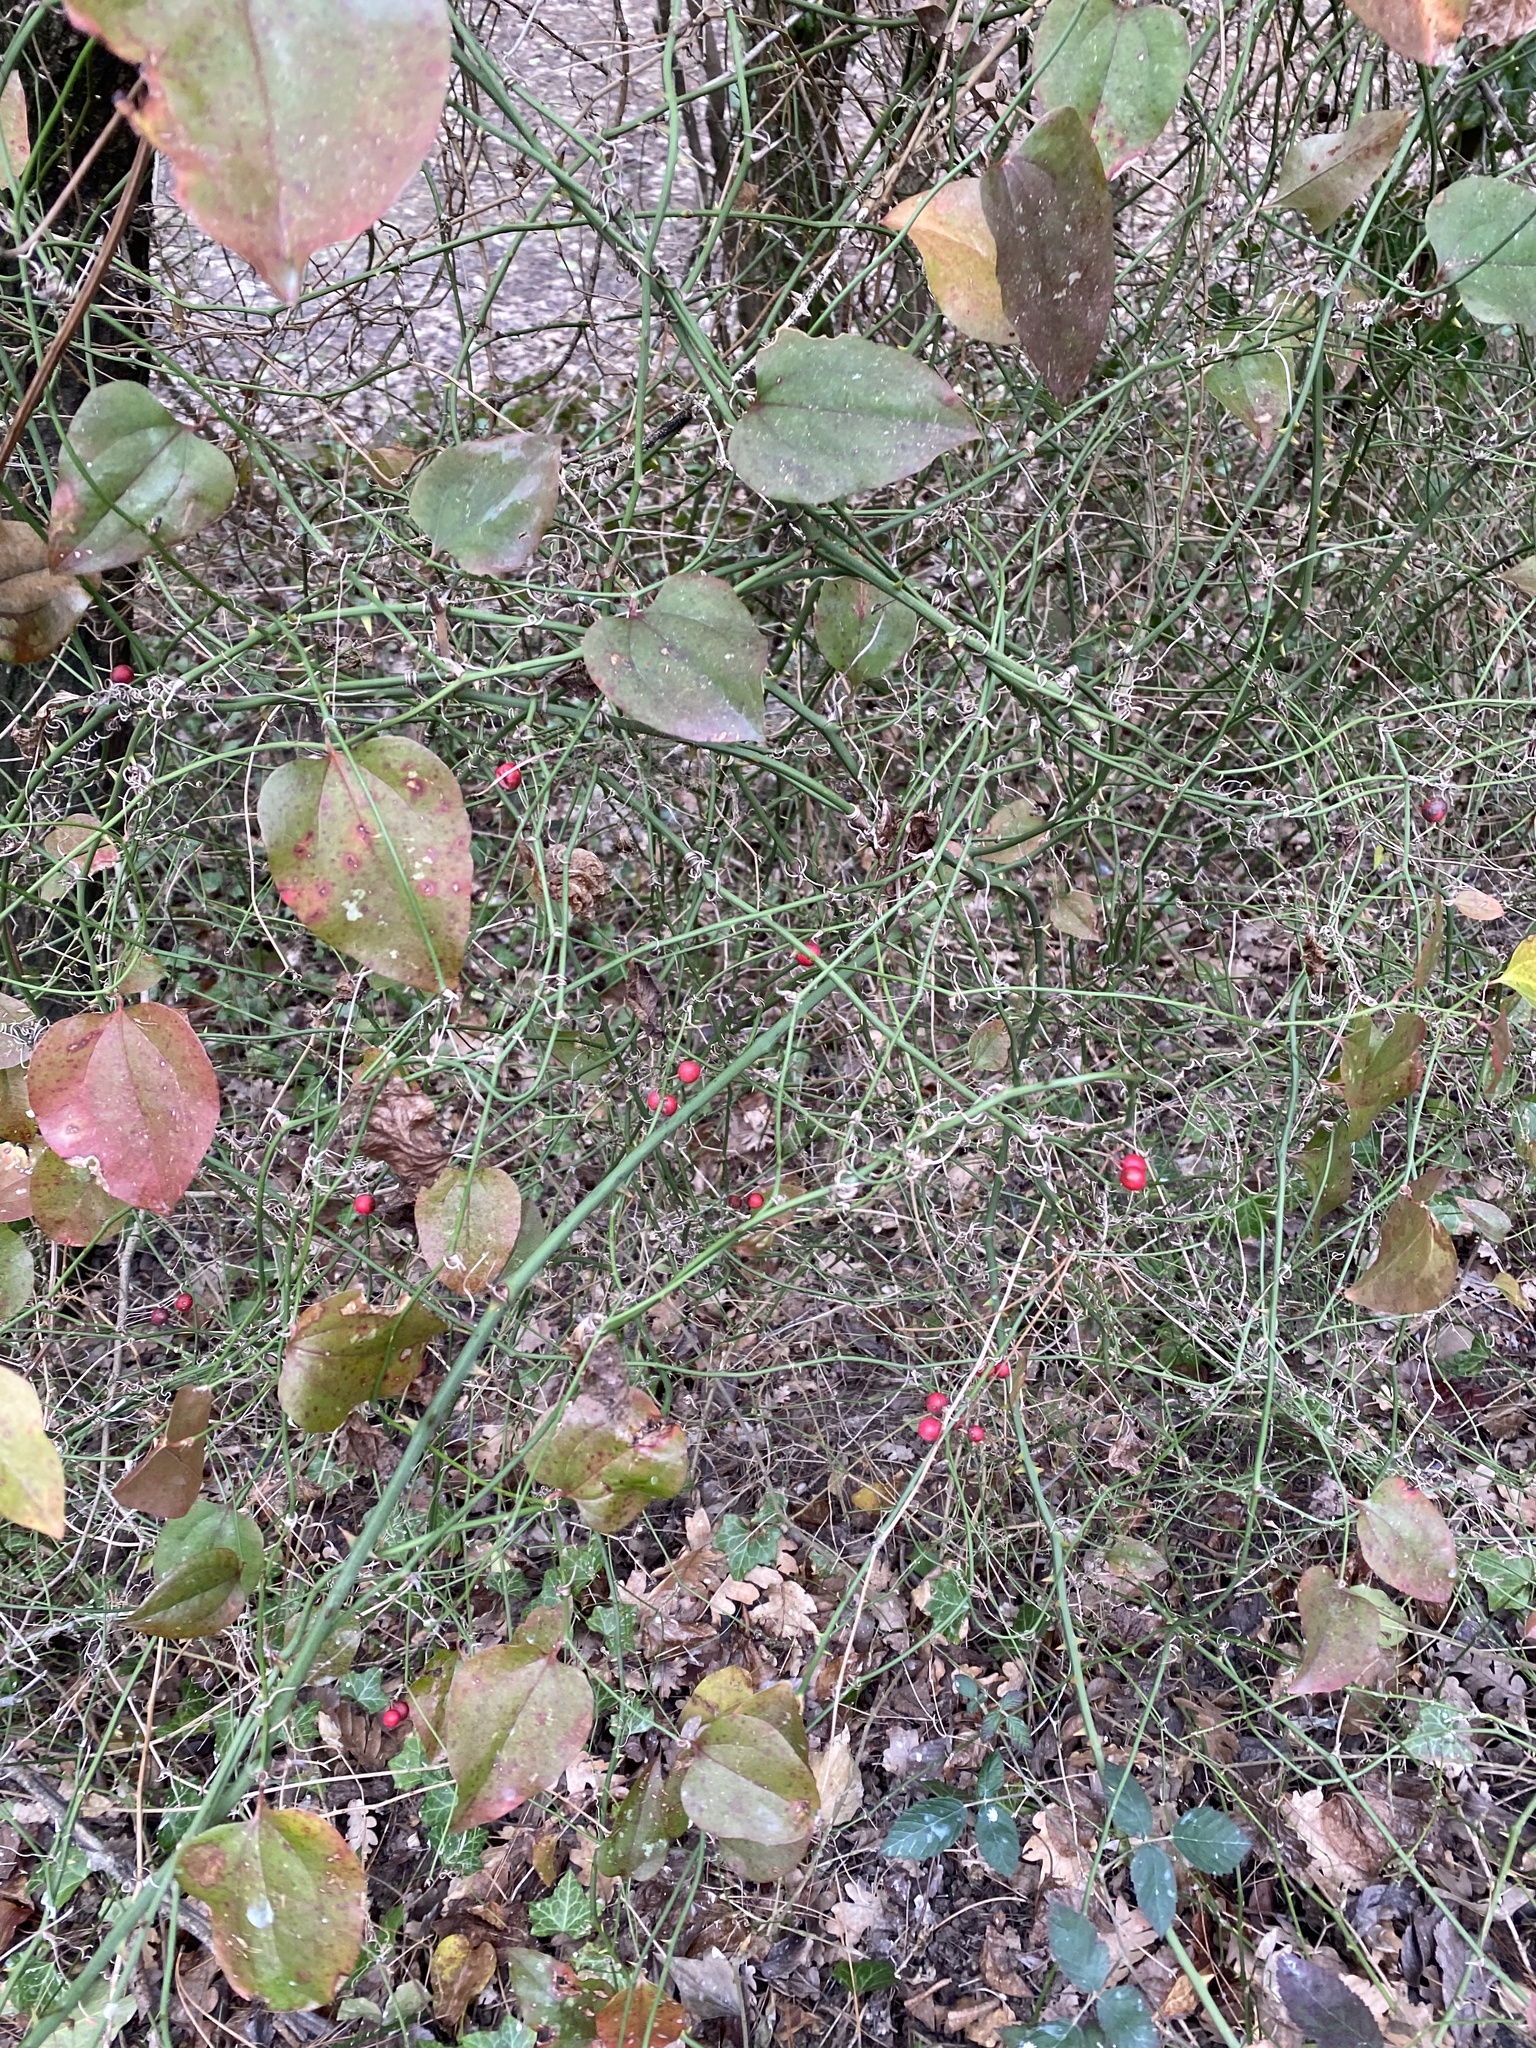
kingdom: Plantae
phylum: Tracheophyta
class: Liliopsida
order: Liliales
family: Smilacaceae
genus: Smilax
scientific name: Smilax excelsa
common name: Larger smilax
